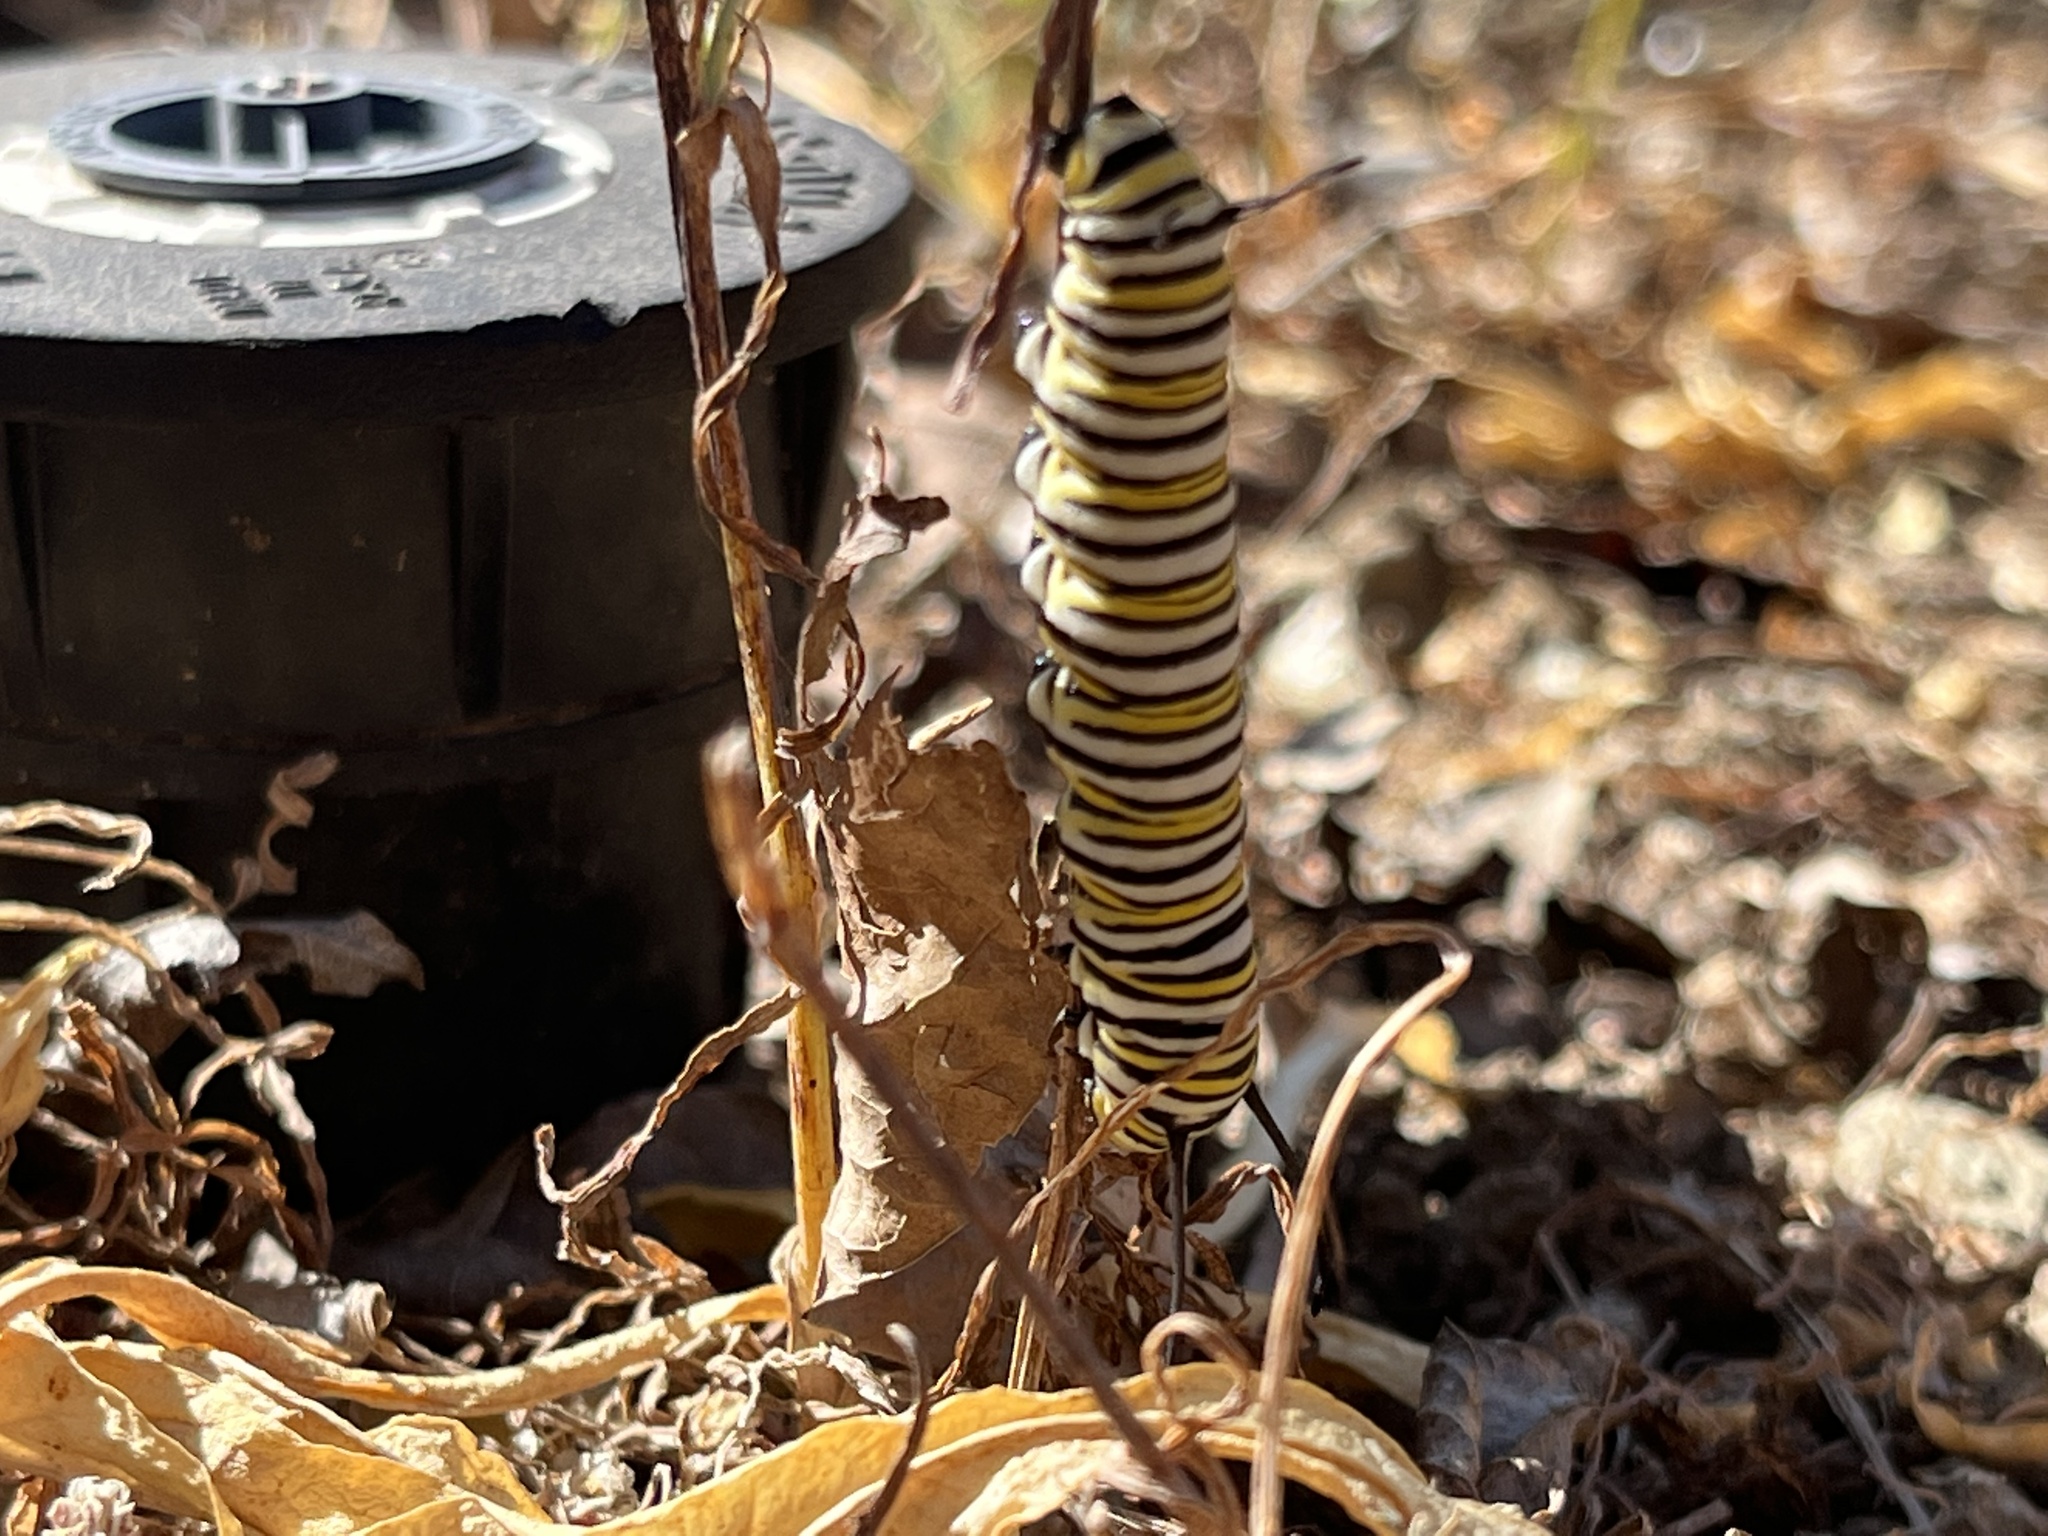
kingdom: Animalia
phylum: Arthropoda
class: Insecta
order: Lepidoptera
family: Nymphalidae
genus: Danaus
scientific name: Danaus plexippus
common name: Monarch
